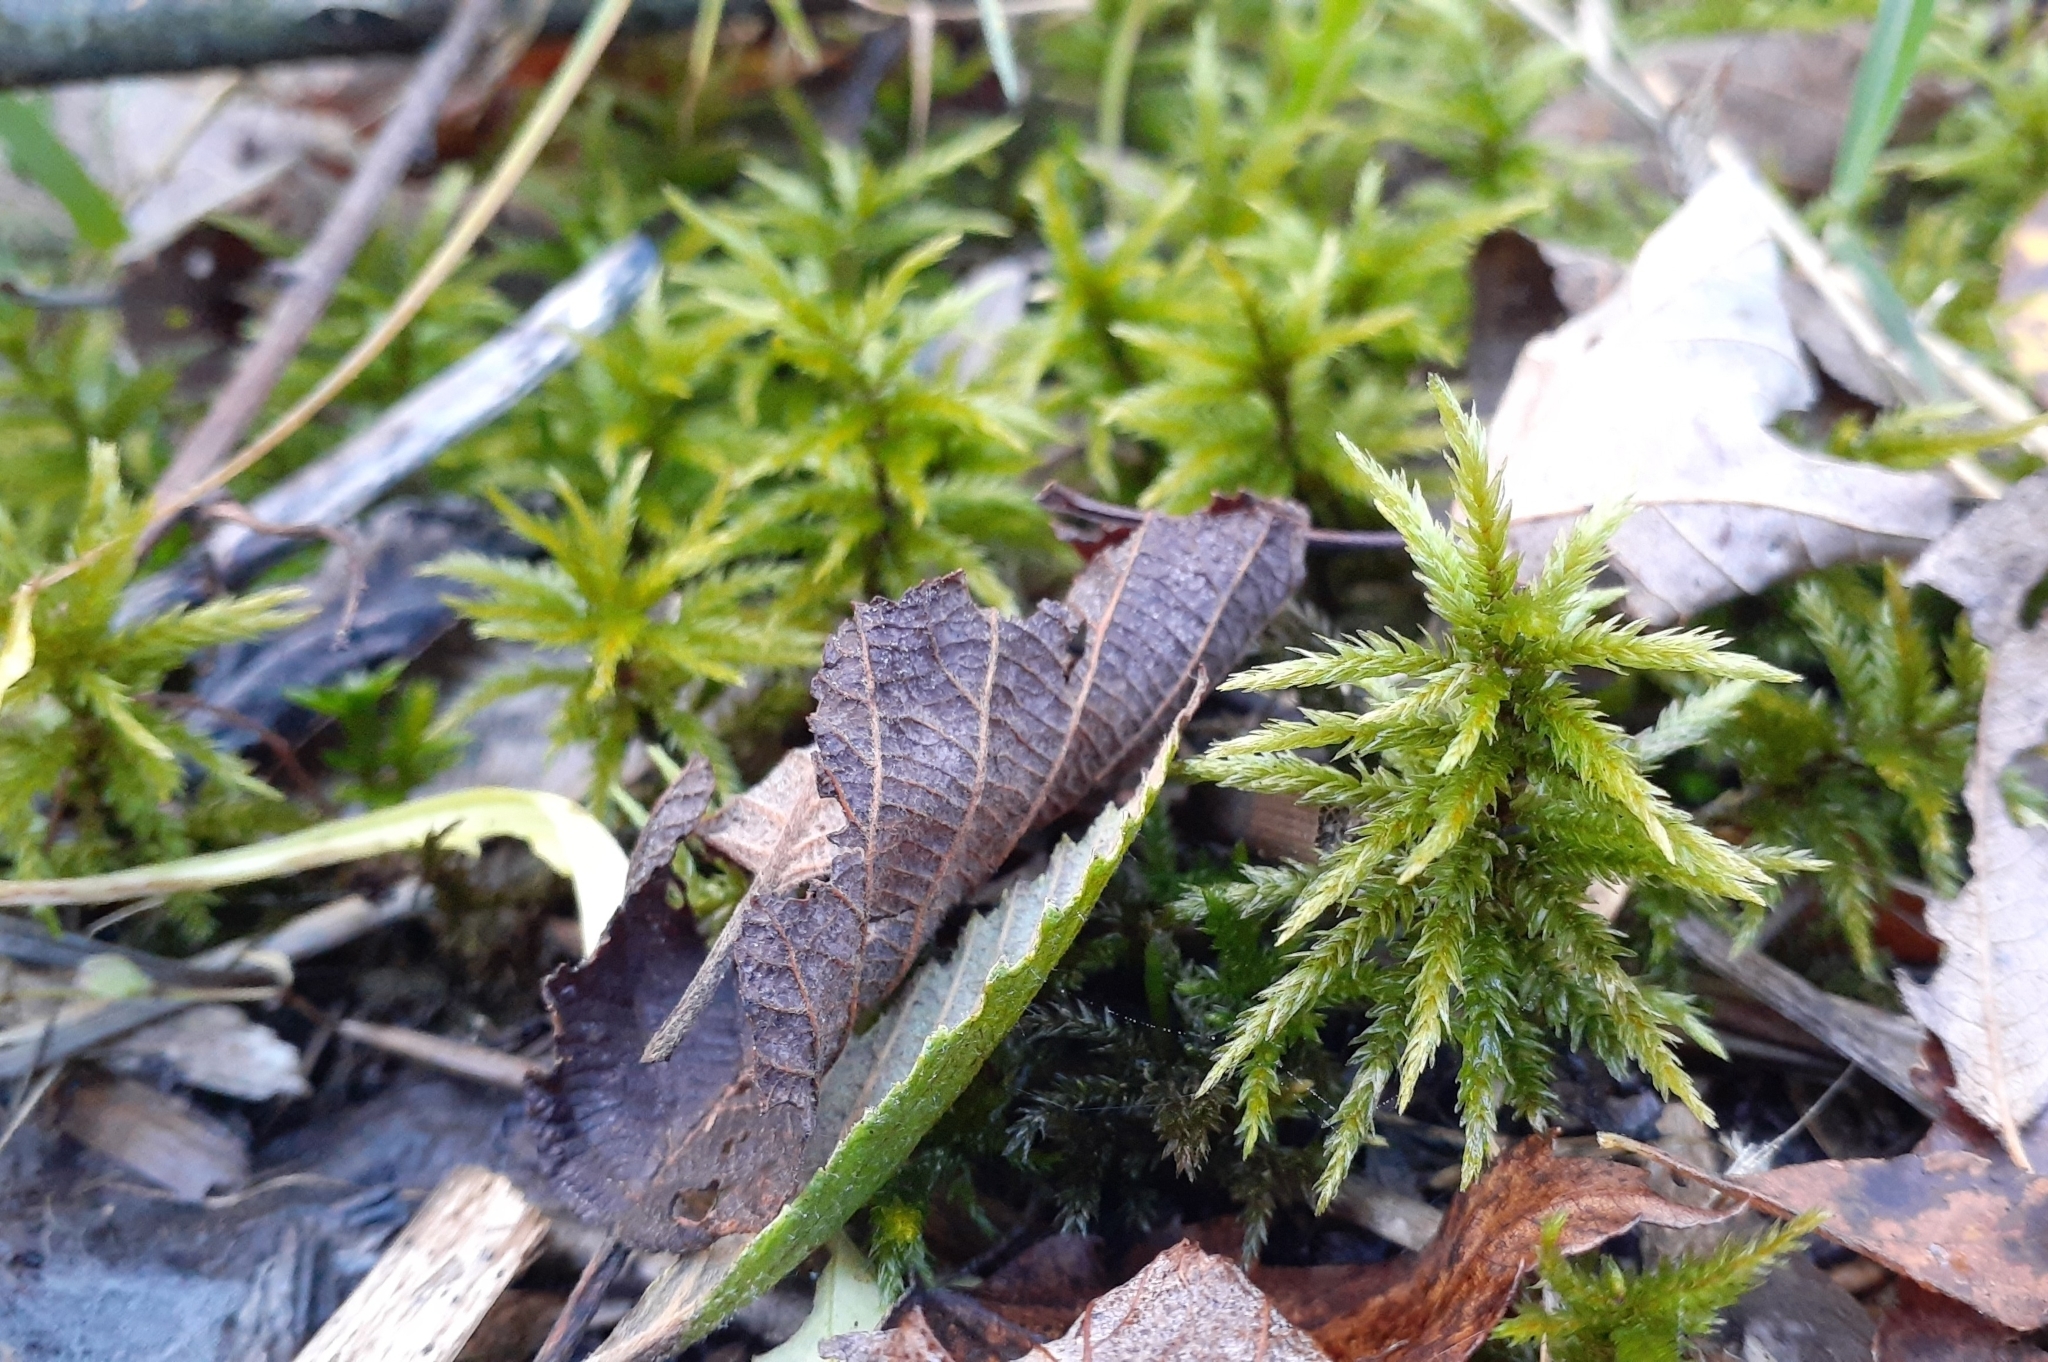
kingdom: Plantae
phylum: Bryophyta
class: Bryopsida
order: Hypnales
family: Climaciaceae
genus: Climacium
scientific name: Climacium dendroides
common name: Northern tree moss
